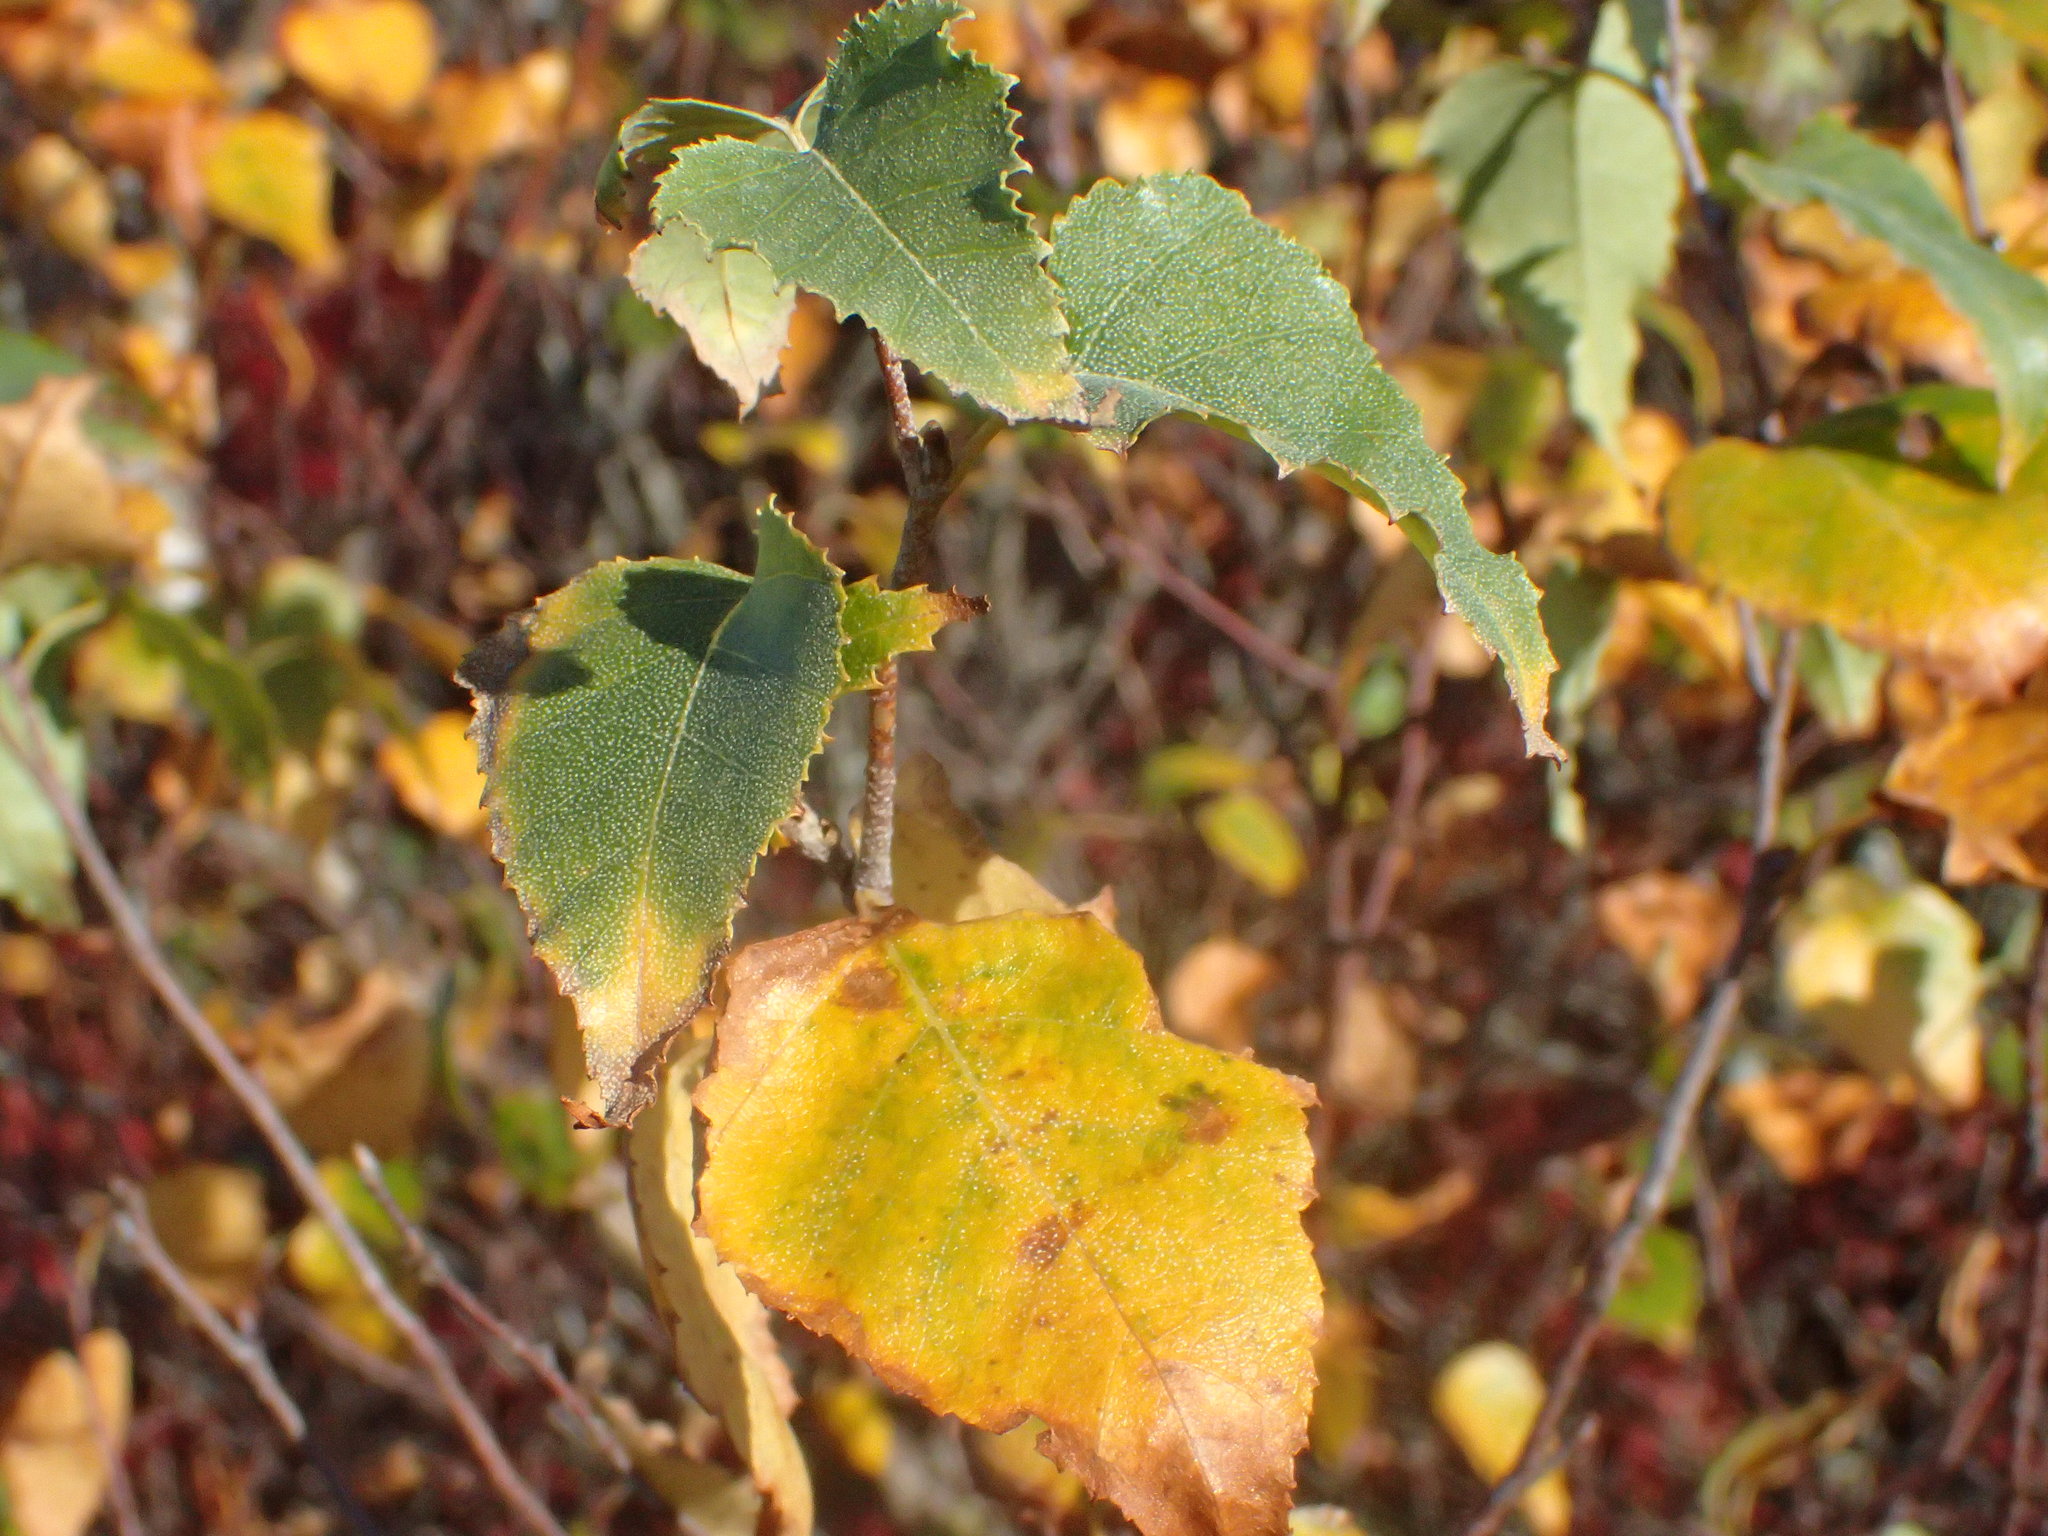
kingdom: Plantae
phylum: Tracheophyta
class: Magnoliopsida
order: Fagales
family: Betulaceae
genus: Betula
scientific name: Betula populifolia
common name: Fire birch
